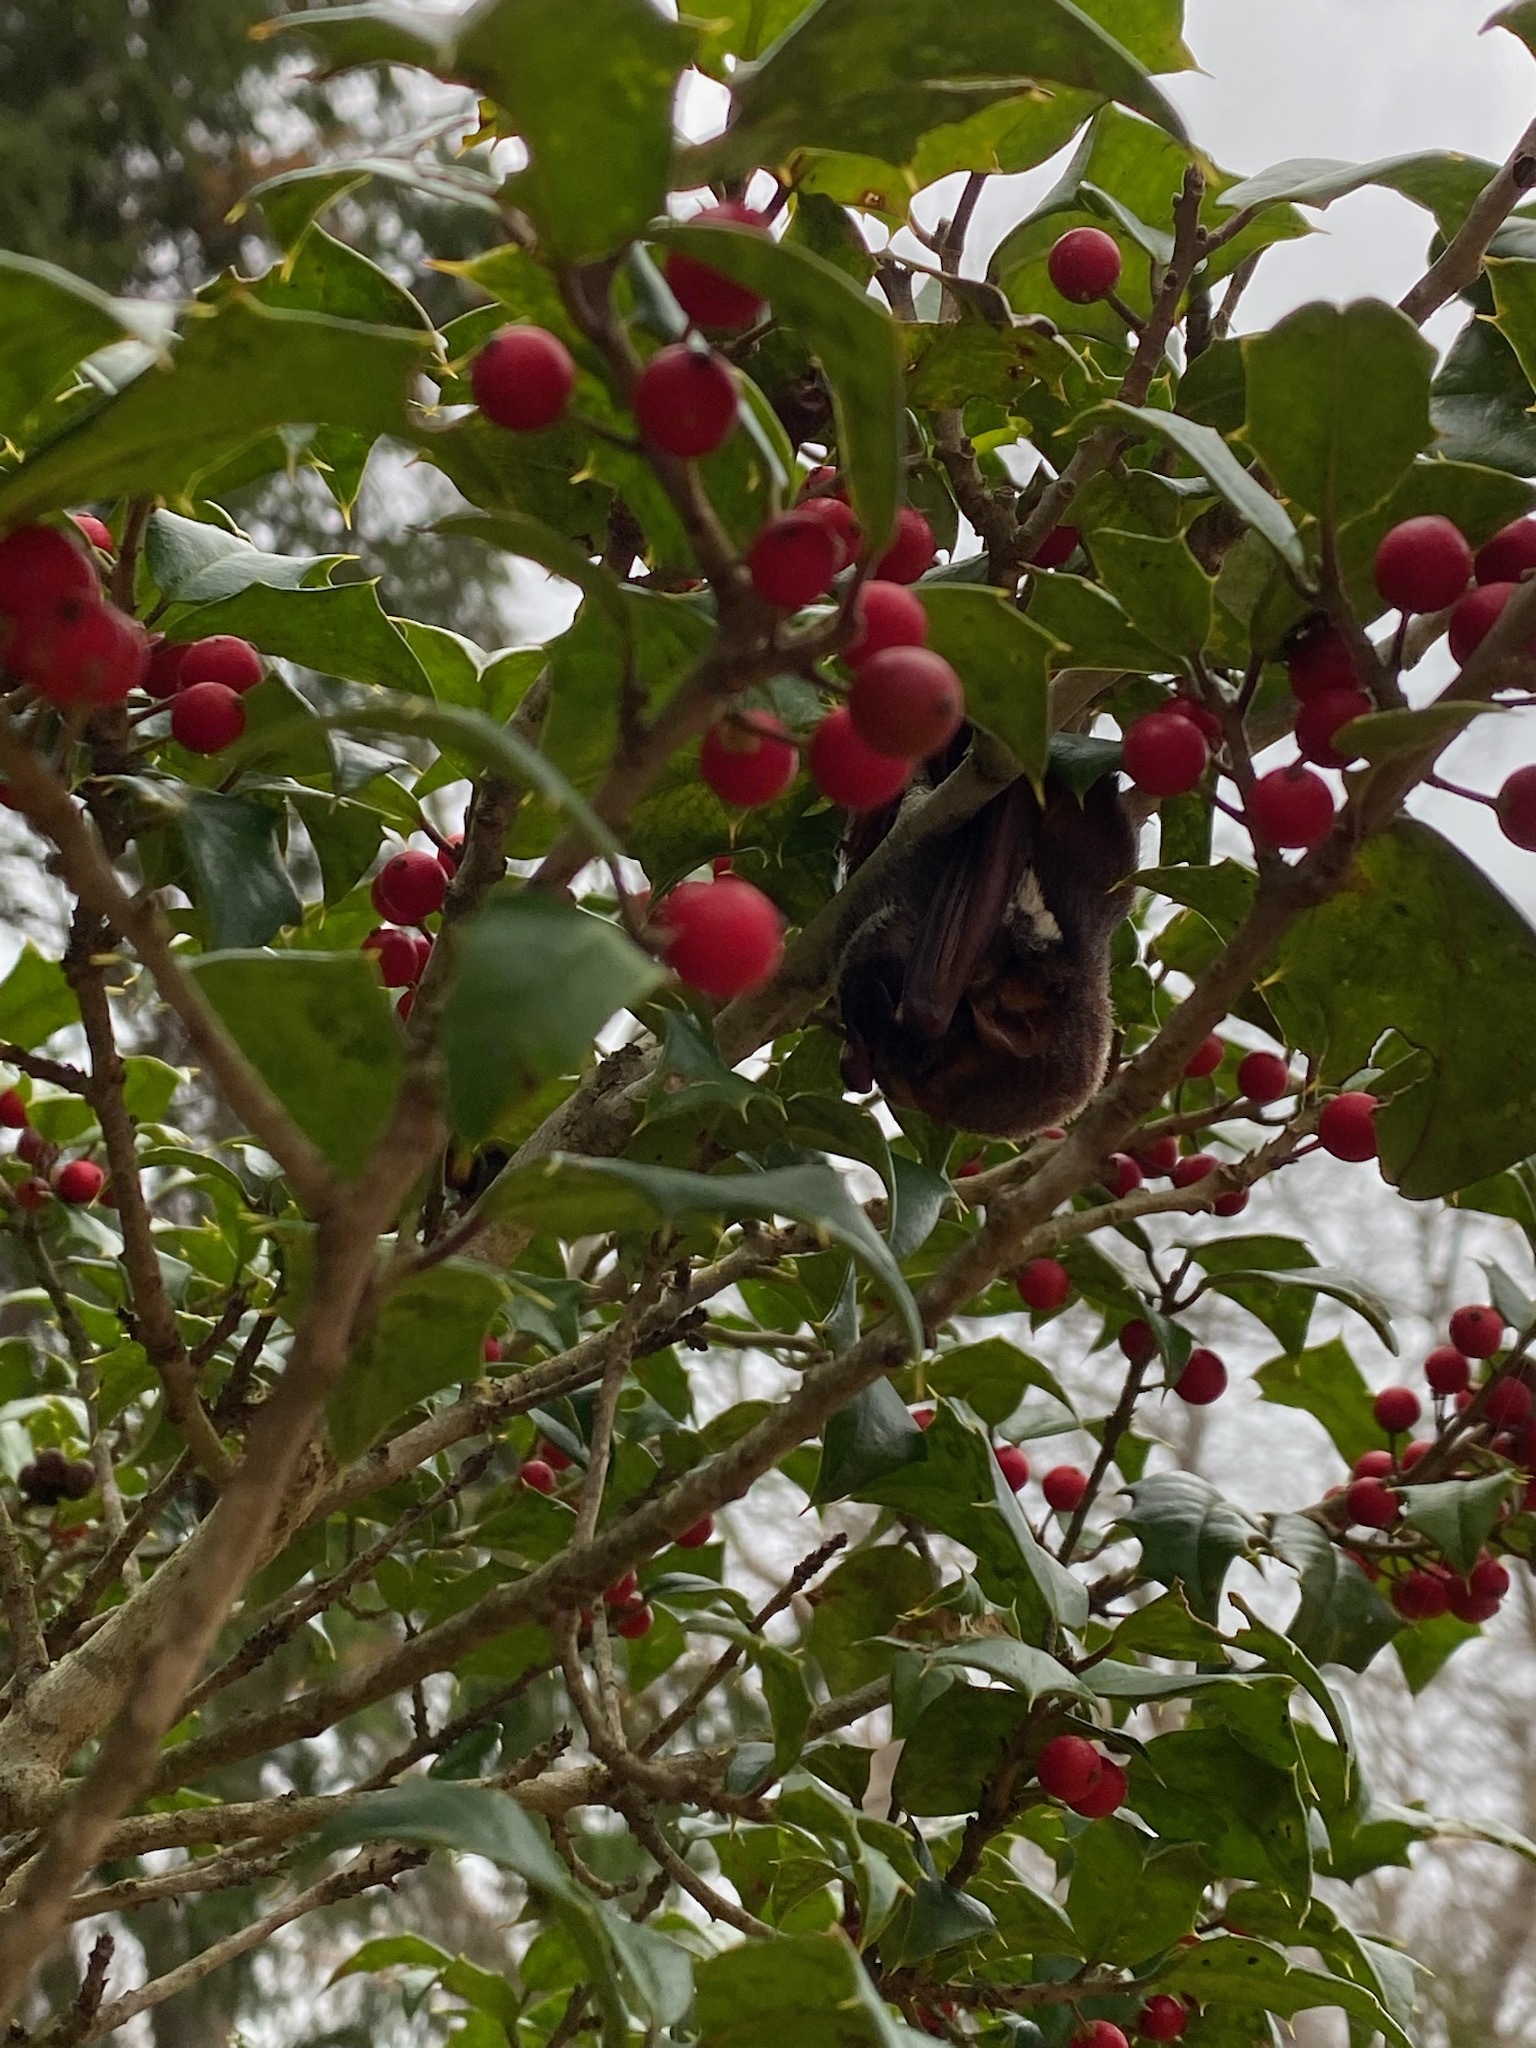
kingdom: Animalia
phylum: Chordata
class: Mammalia
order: Chiroptera
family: Vespertilionidae
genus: Lasiurus
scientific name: Lasiurus
